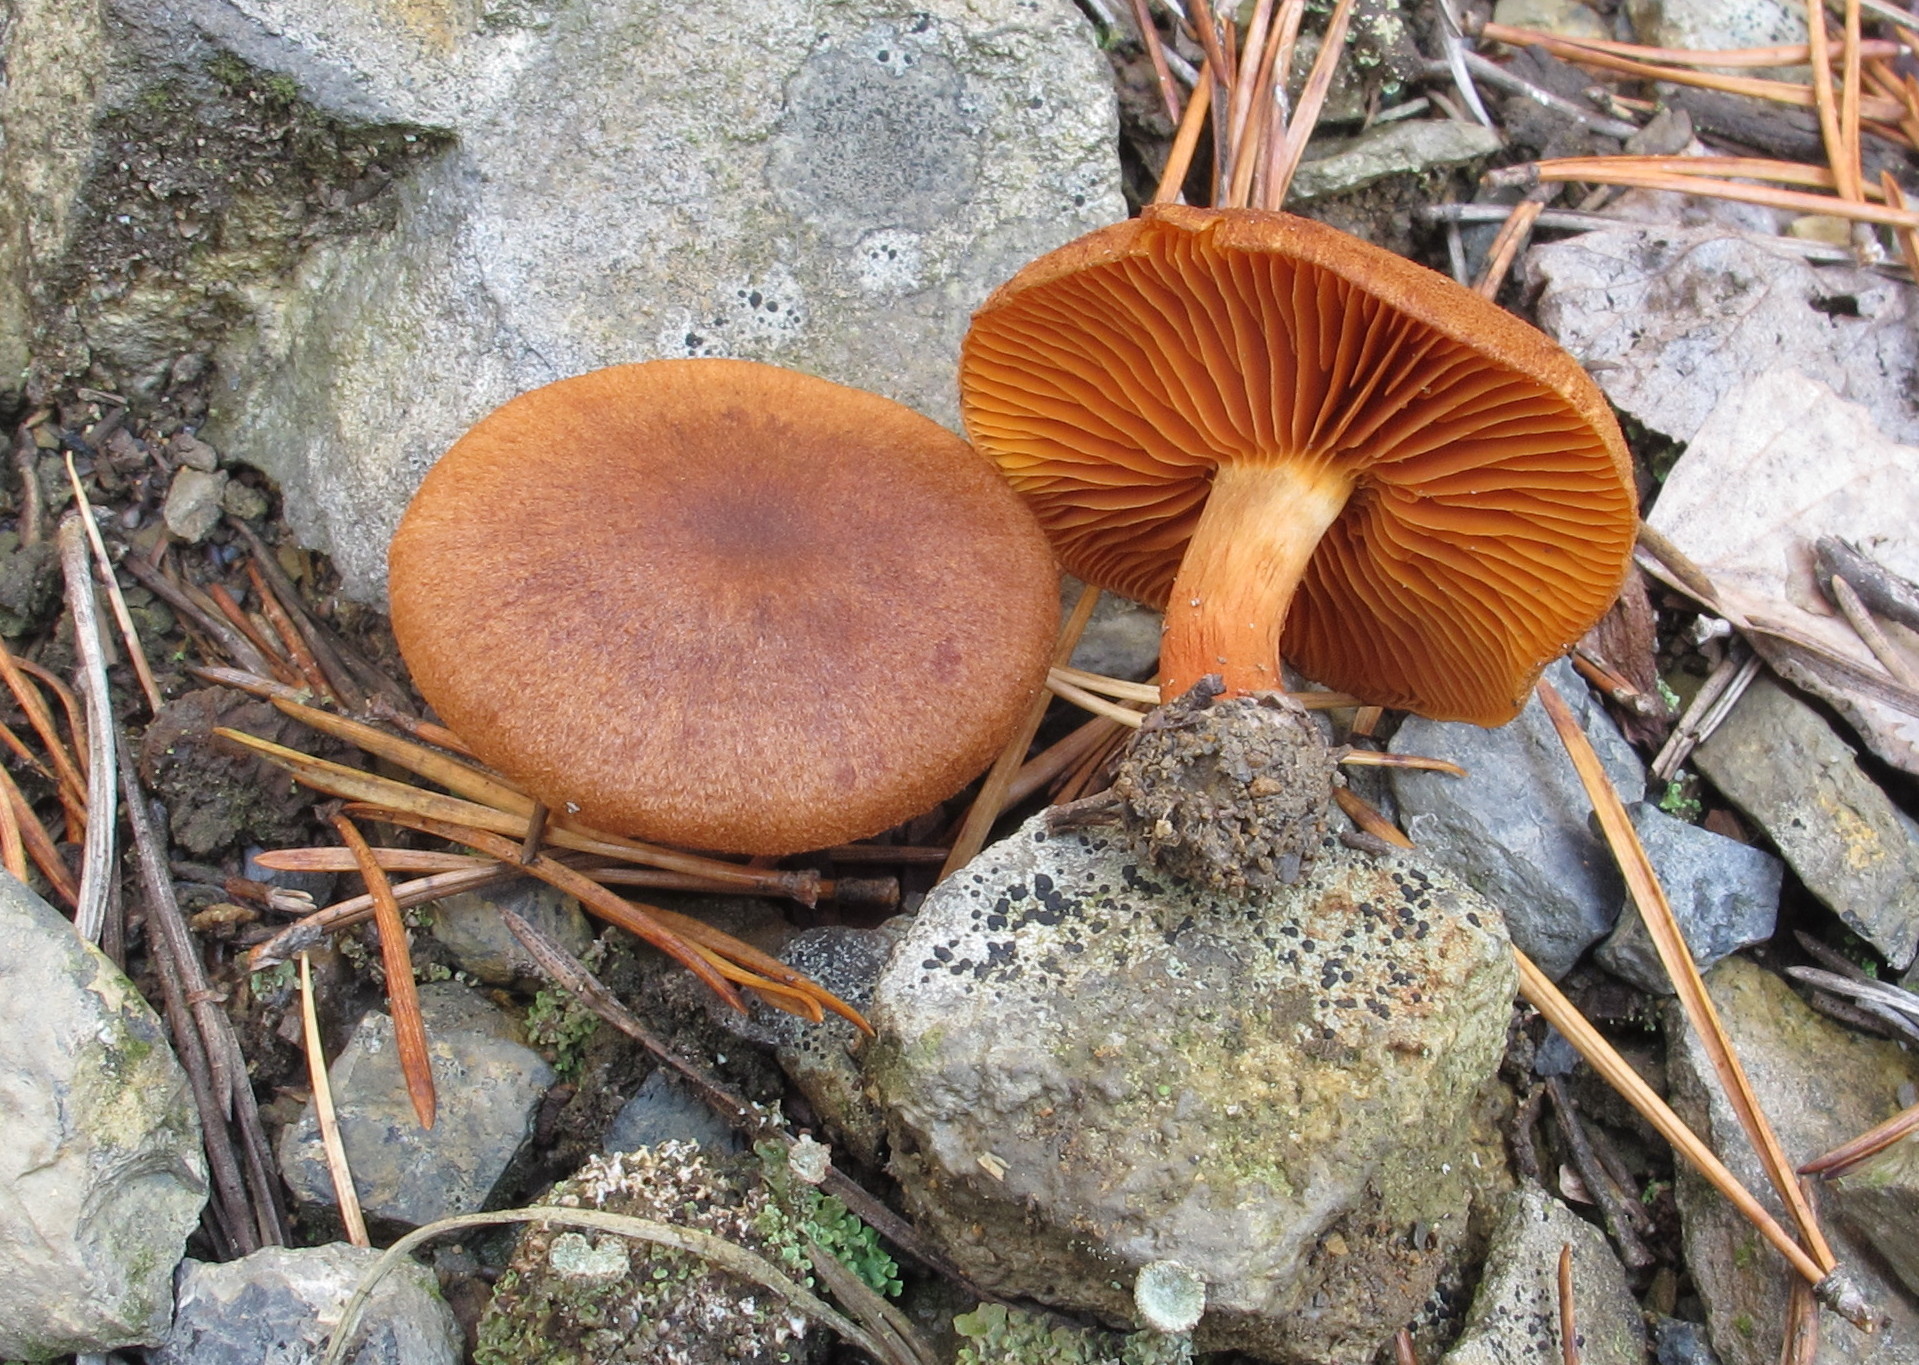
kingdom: Fungi
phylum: Basidiomycota
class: Agaricomycetes
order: Agaricales
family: Cortinariaceae
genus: Cortinarius
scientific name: Cortinarius cinnamomeus
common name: Cinnamon webcap
